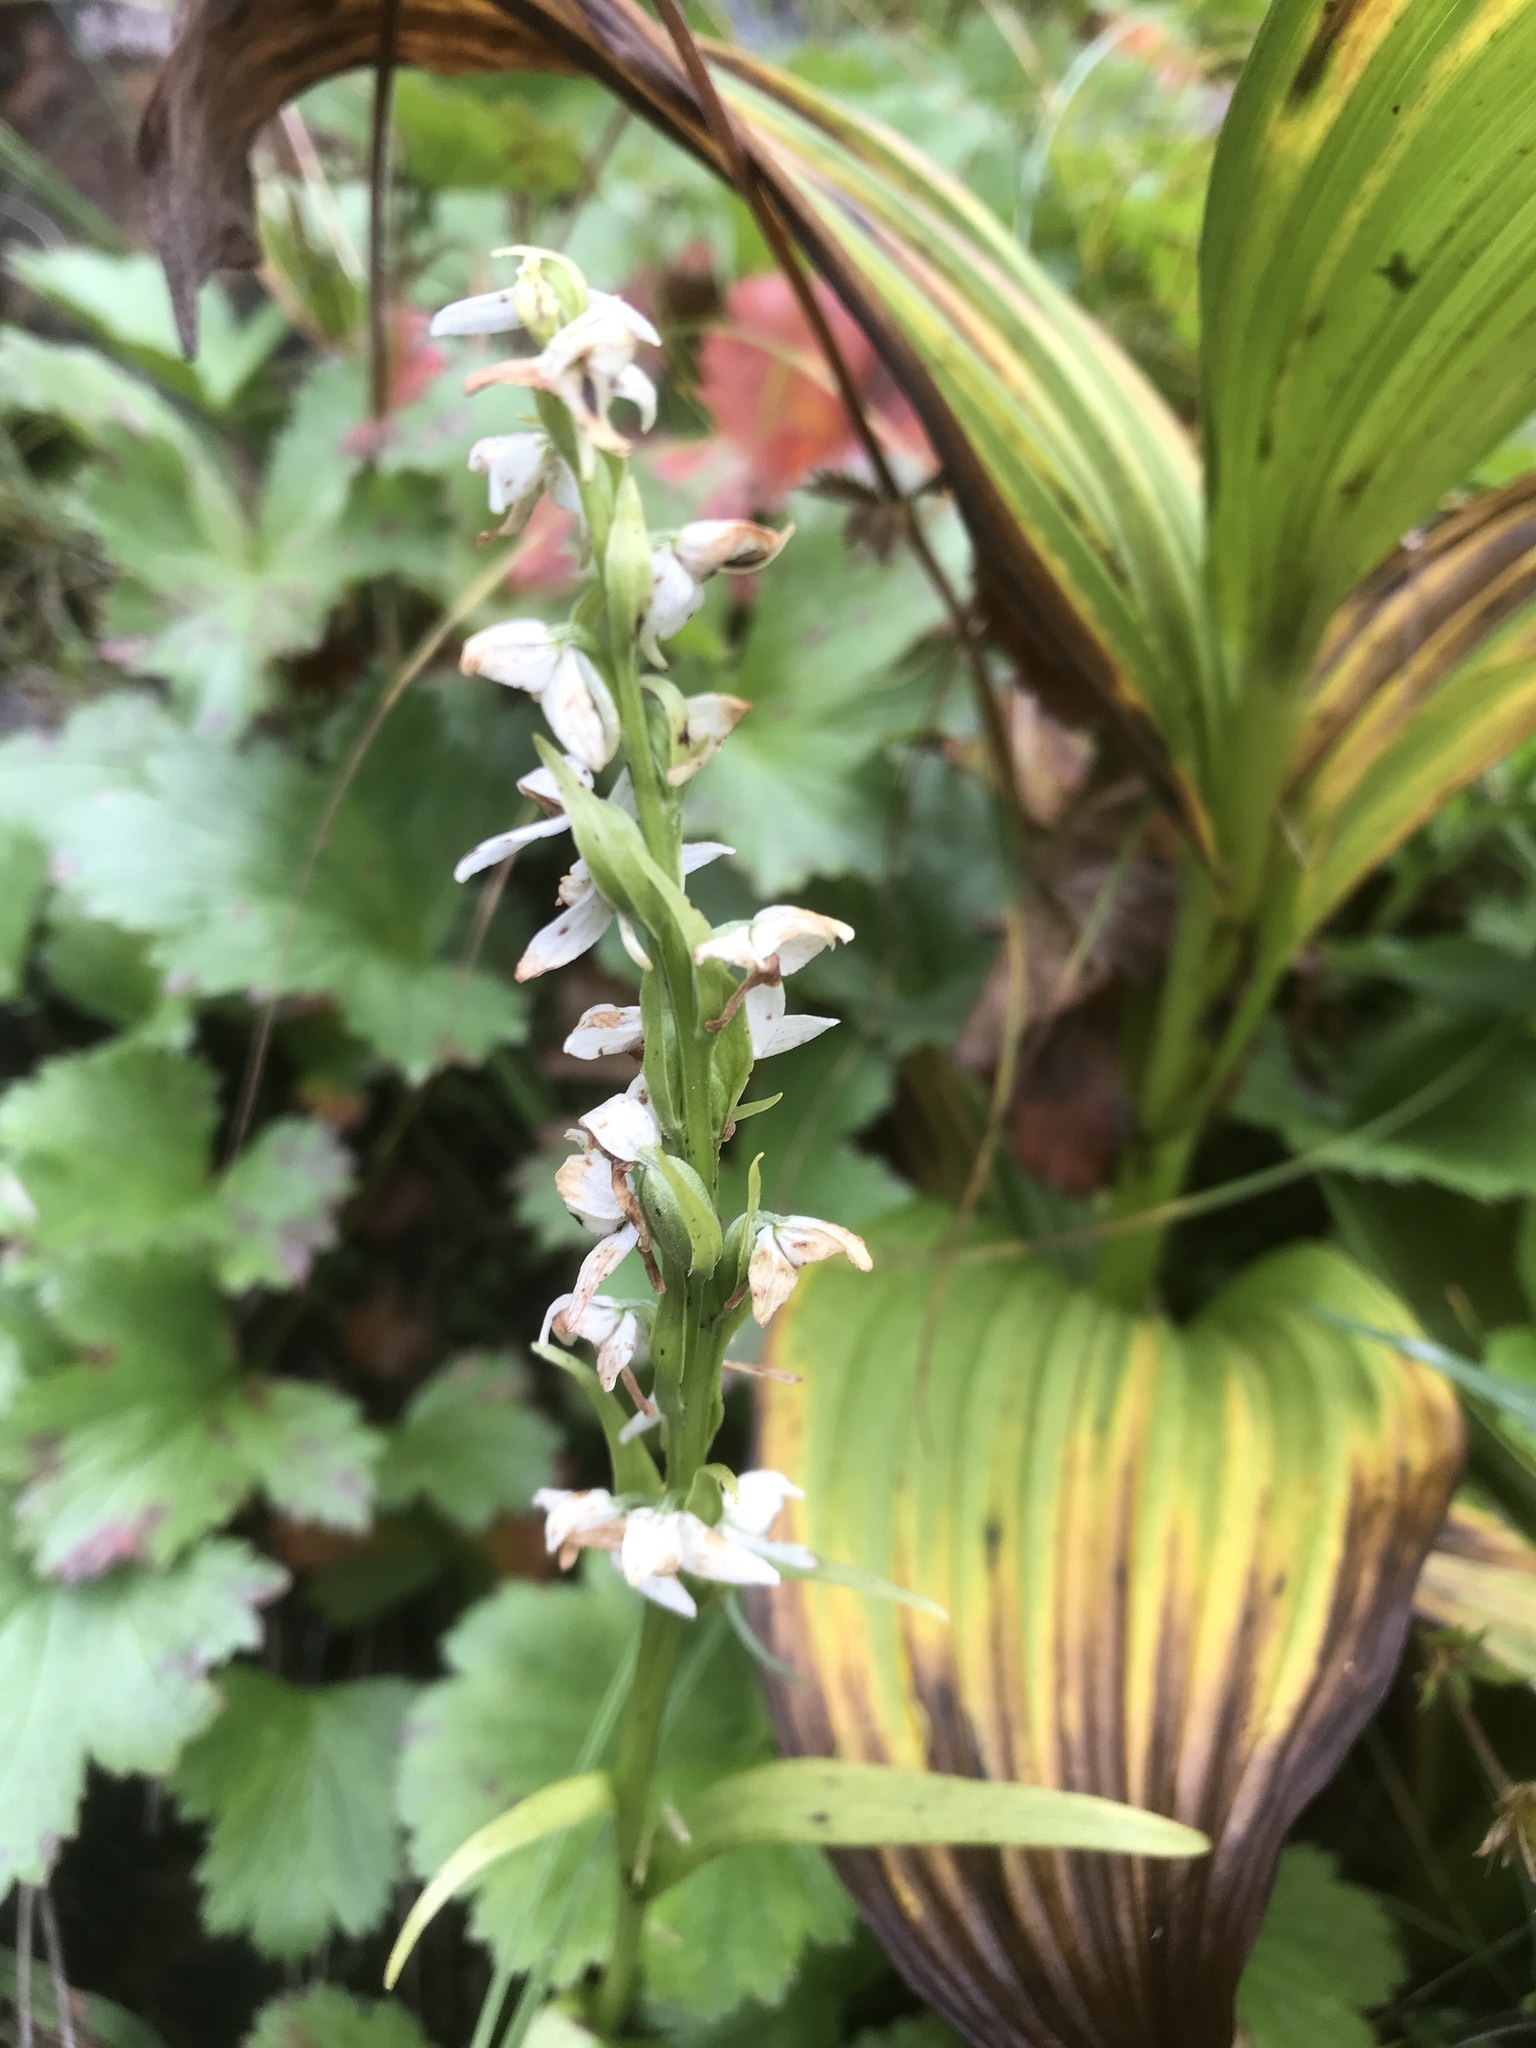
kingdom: Plantae
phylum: Tracheophyta
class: Liliopsida
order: Asparagales
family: Orchidaceae
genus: Platanthera
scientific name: Platanthera dilatata
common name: Bog candles
